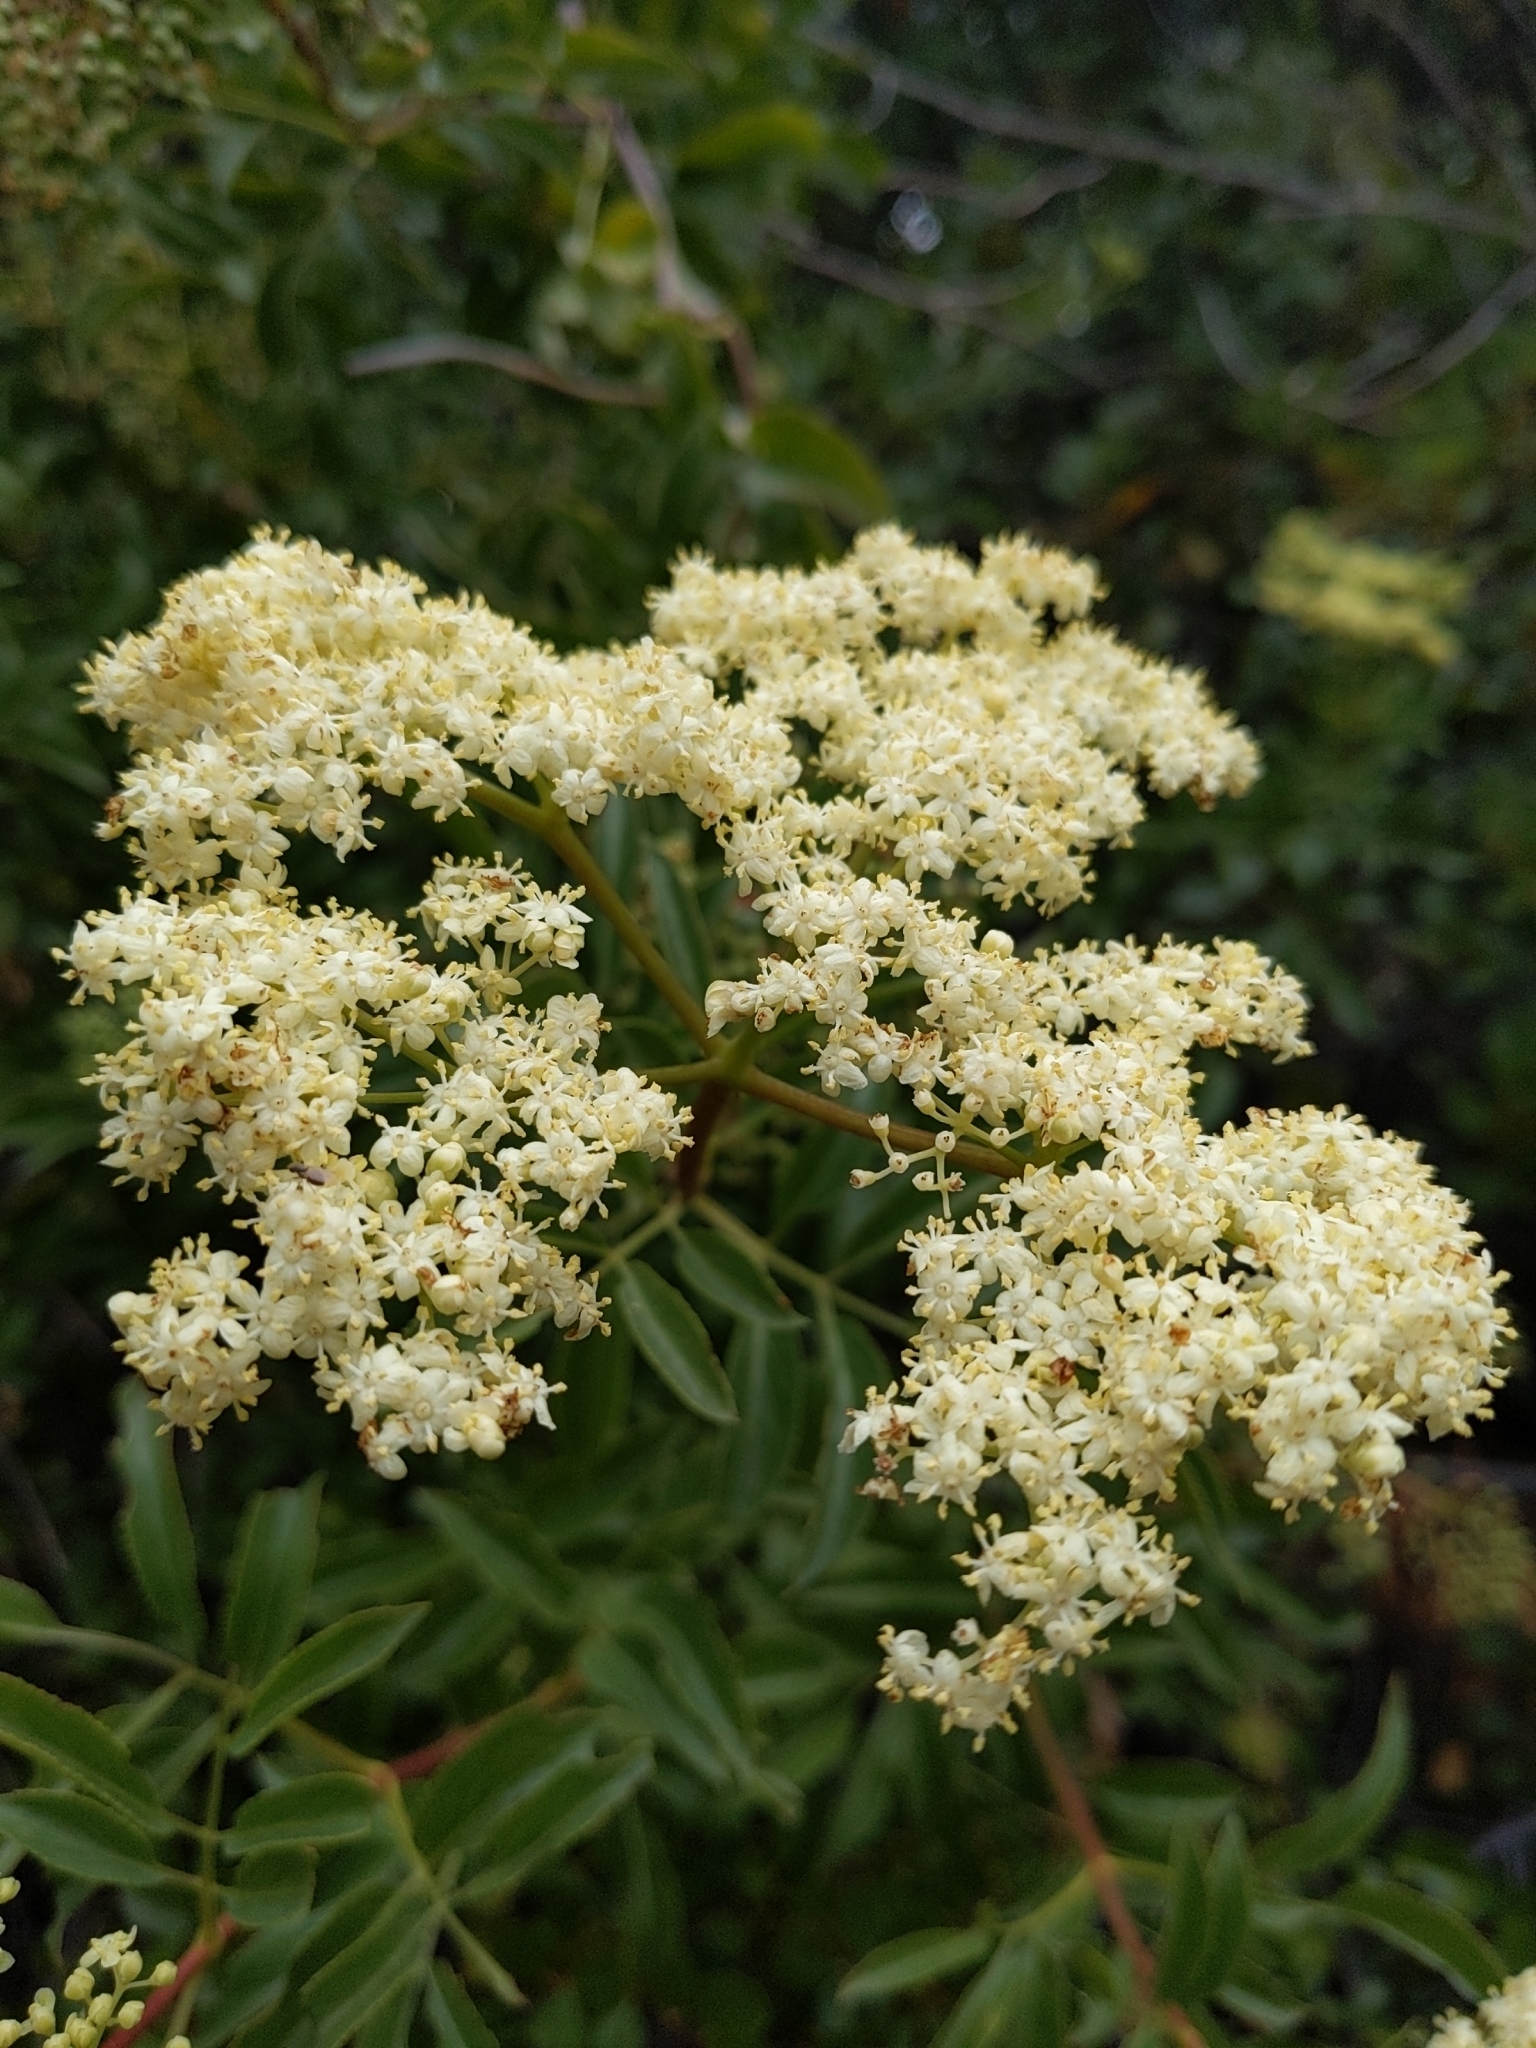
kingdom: Plantae
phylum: Tracheophyta
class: Magnoliopsida
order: Dipsacales
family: Viburnaceae
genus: Sambucus
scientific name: Sambucus cerulea
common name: Blue elder
